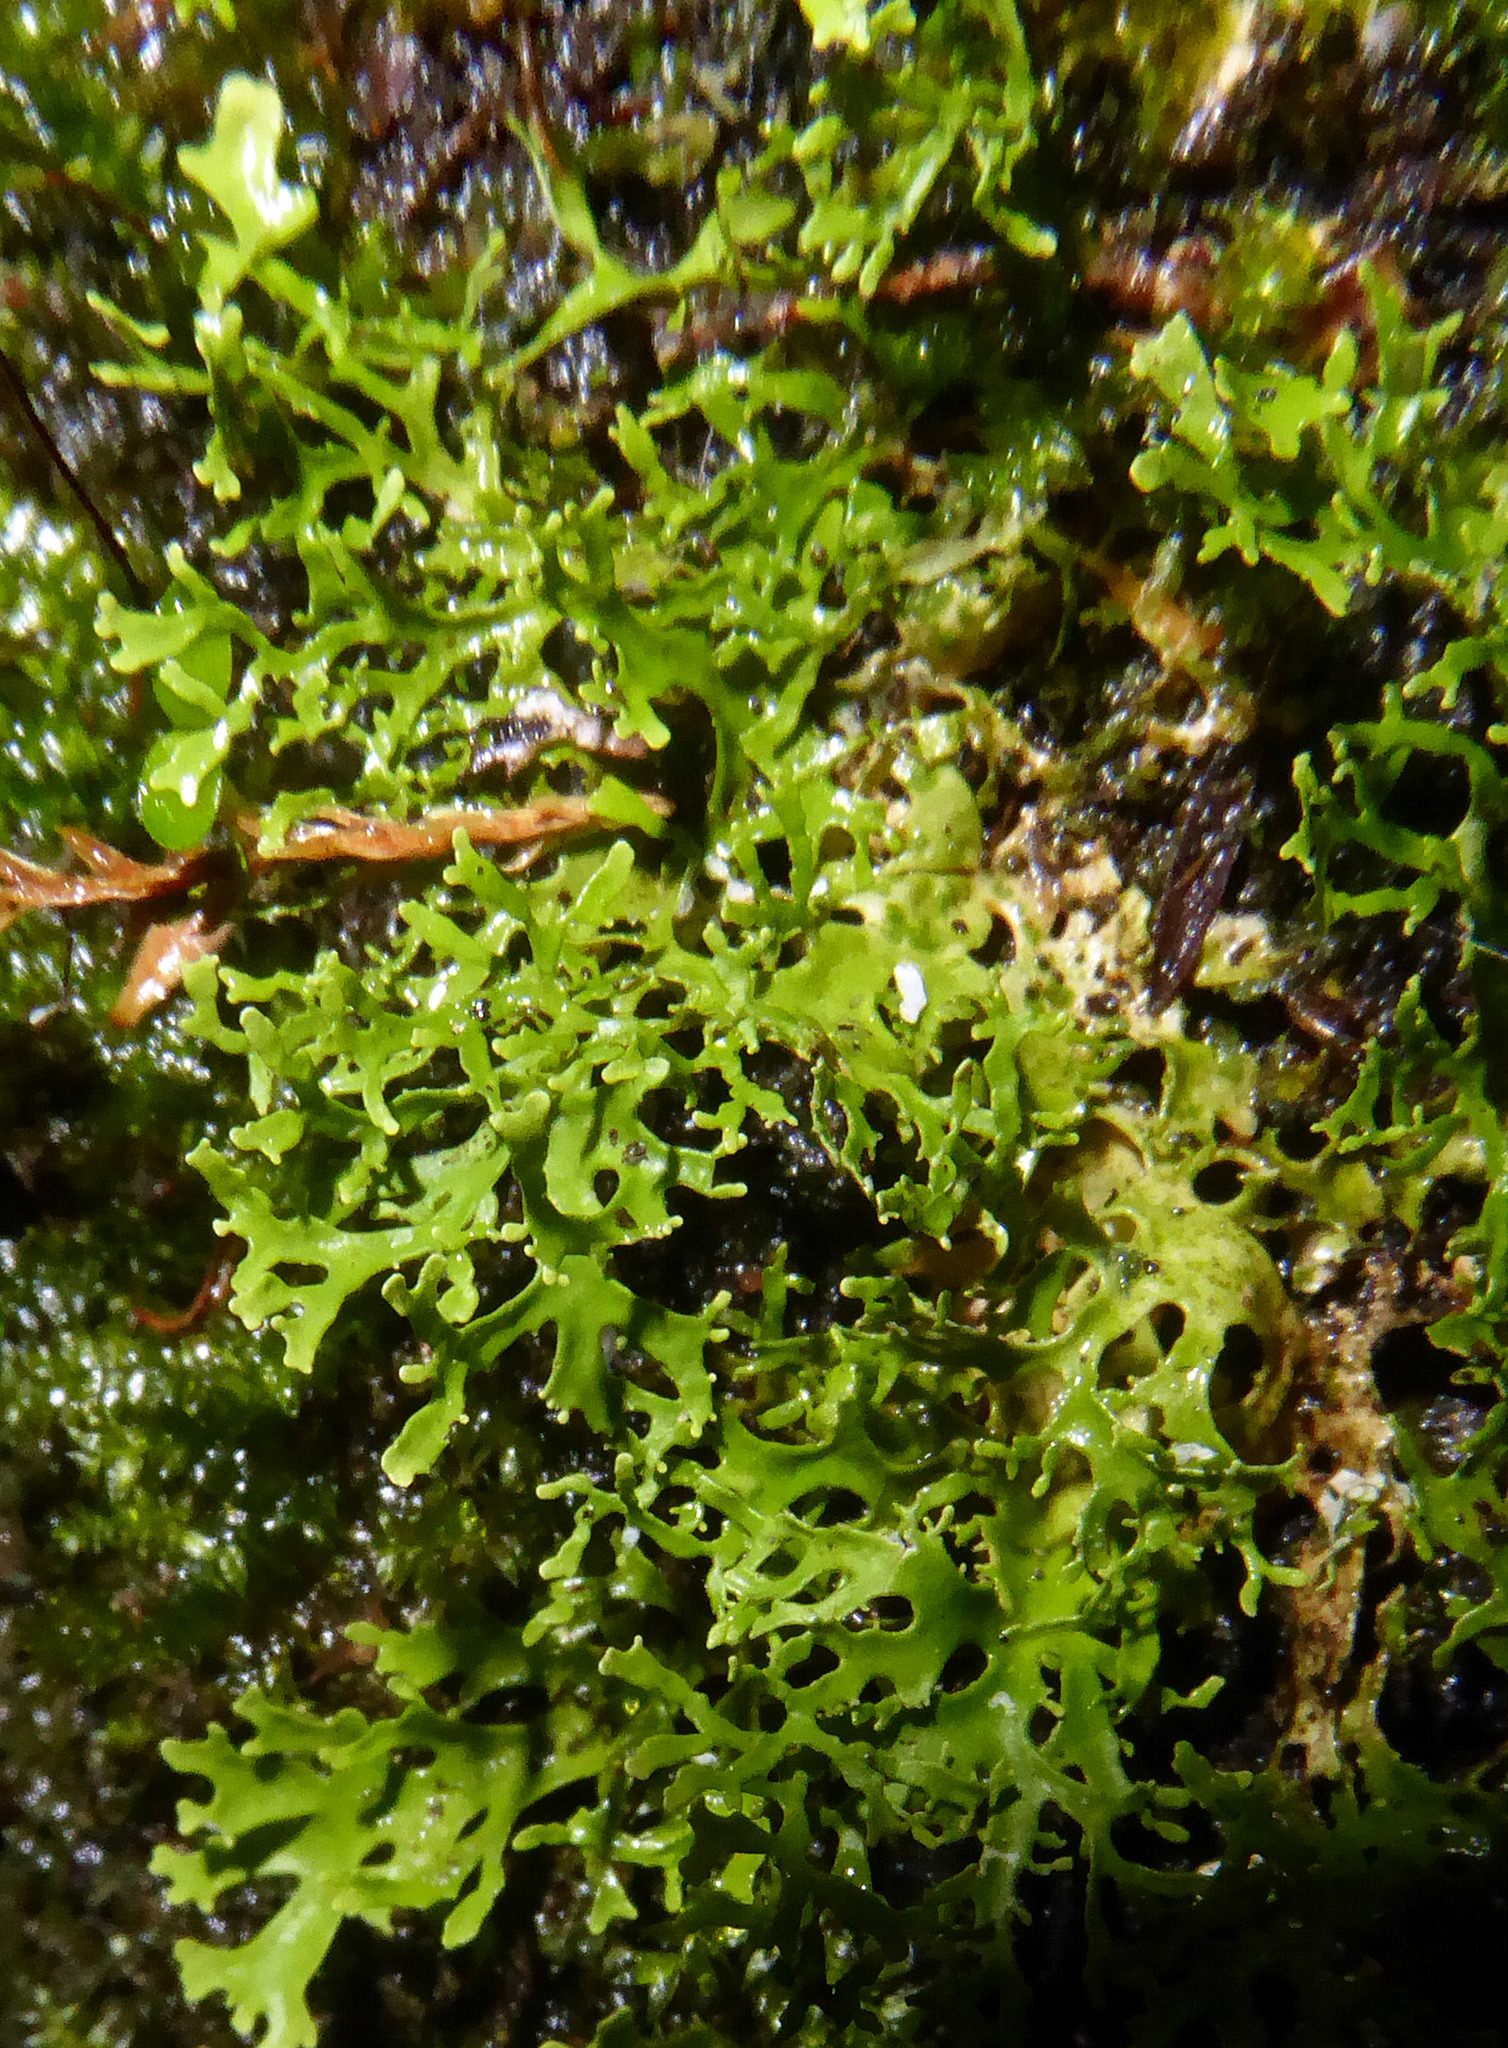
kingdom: Fungi
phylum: Ascomycota
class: Lecanoromycetes
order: Peltigerales
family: Lobariaceae
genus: Pseudocyphellaria
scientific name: Pseudocyphellaria multifida
